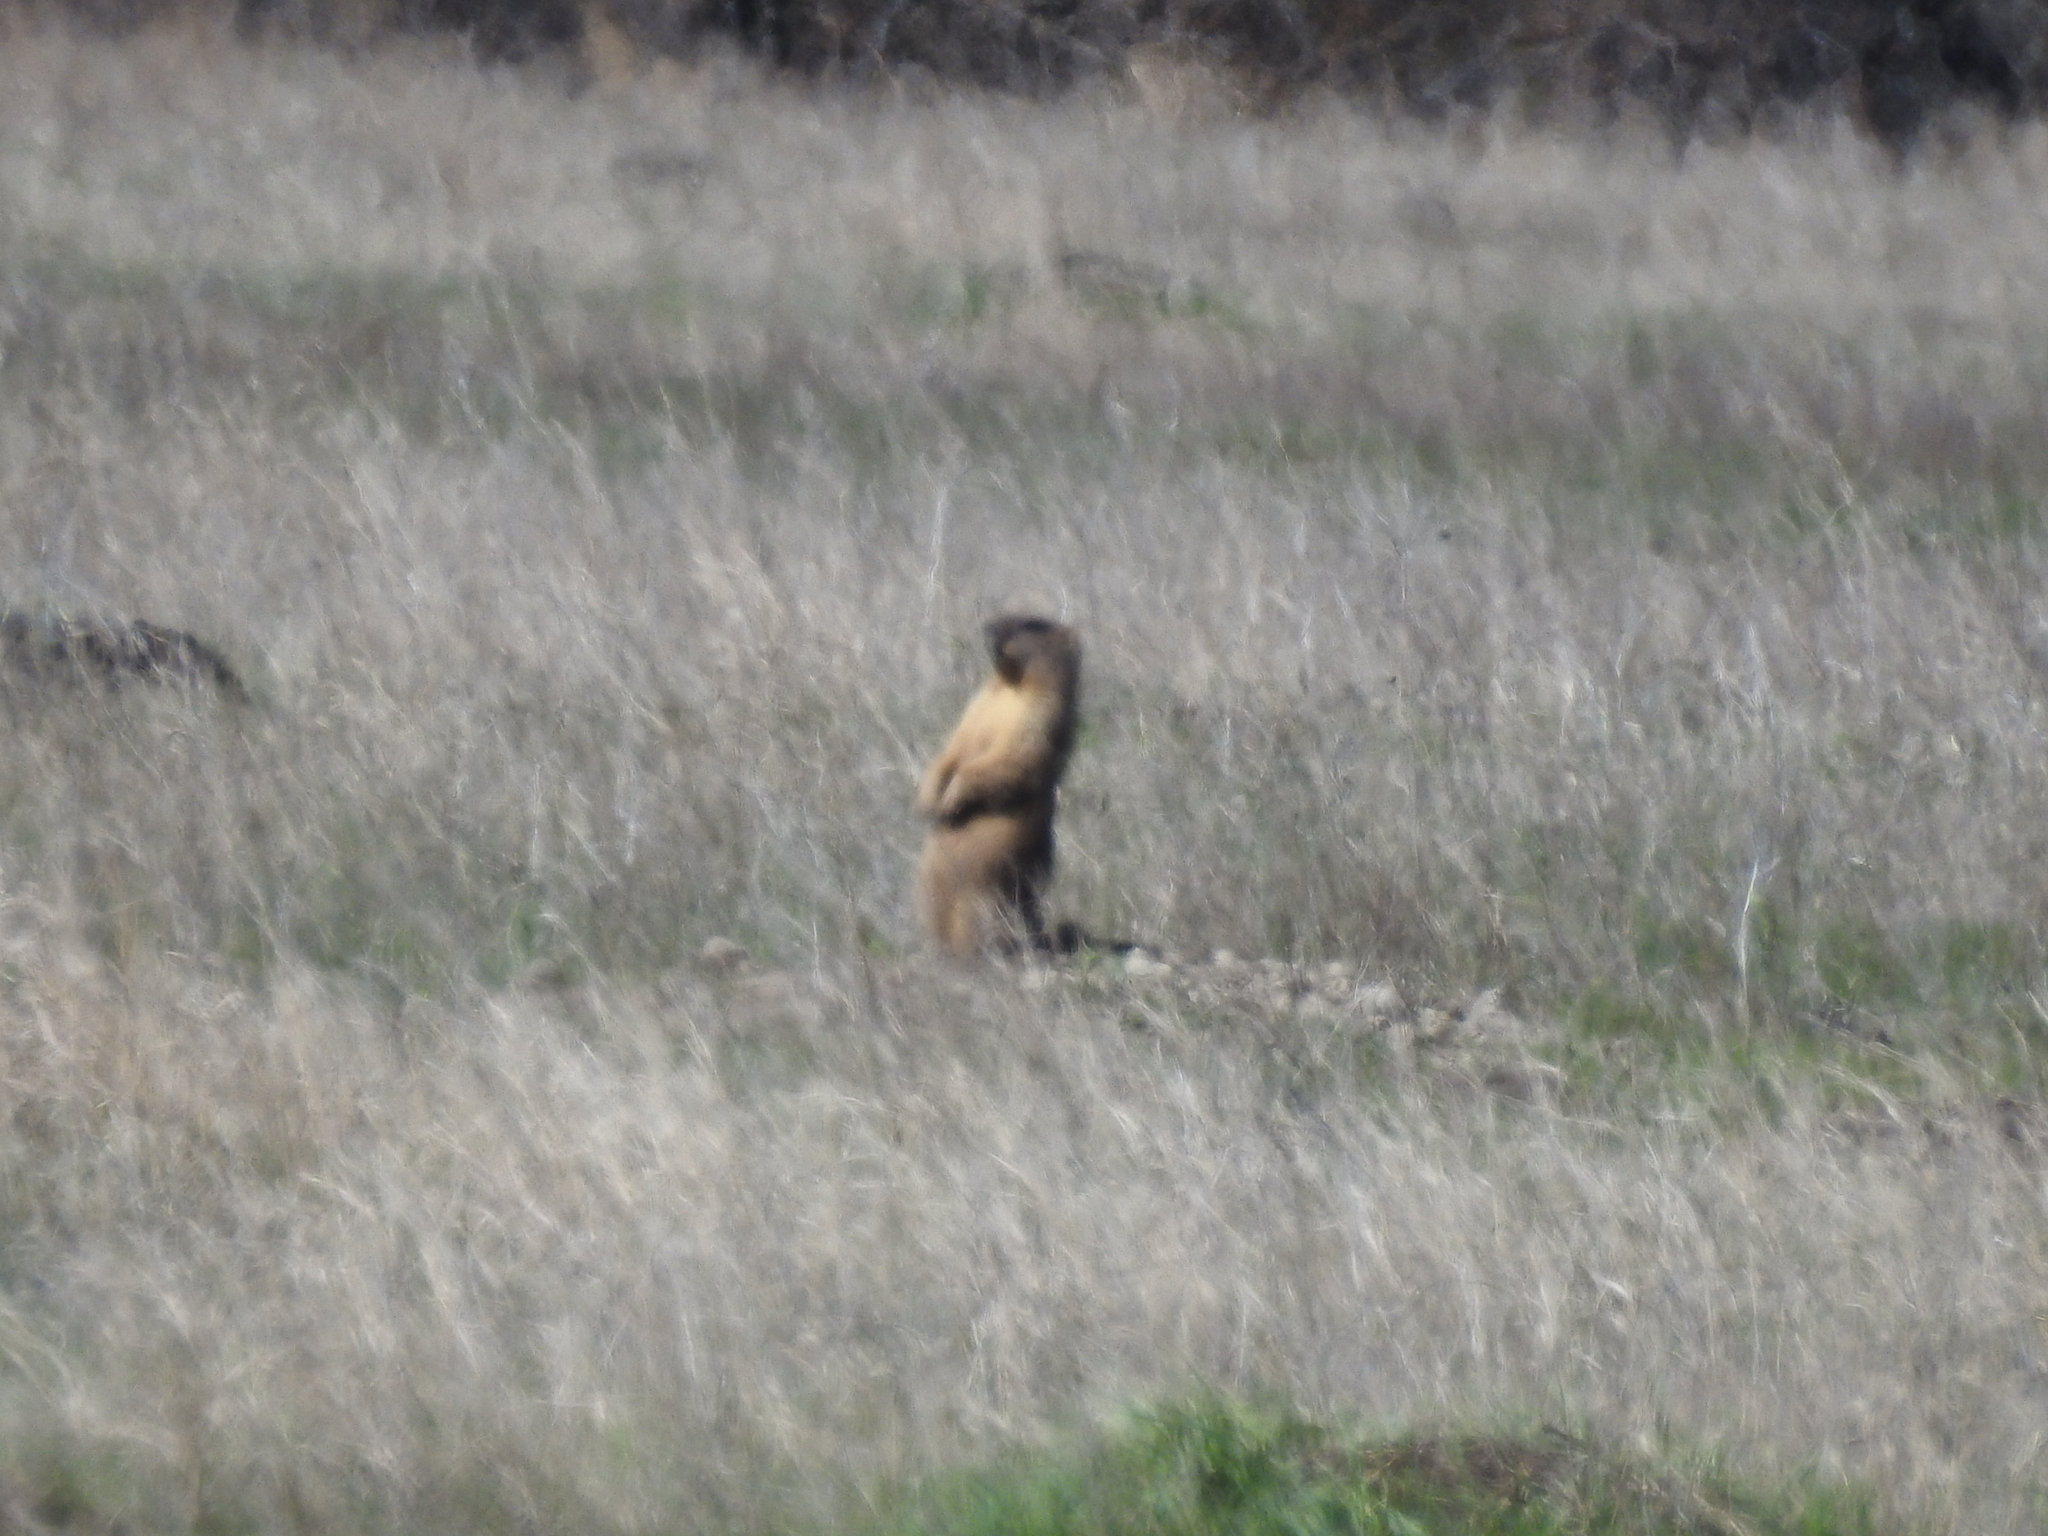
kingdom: Animalia
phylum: Chordata
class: Mammalia
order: Rodentia
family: Sciuridae
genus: Marmota
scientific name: Marmota bobak
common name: Bobak marmot
